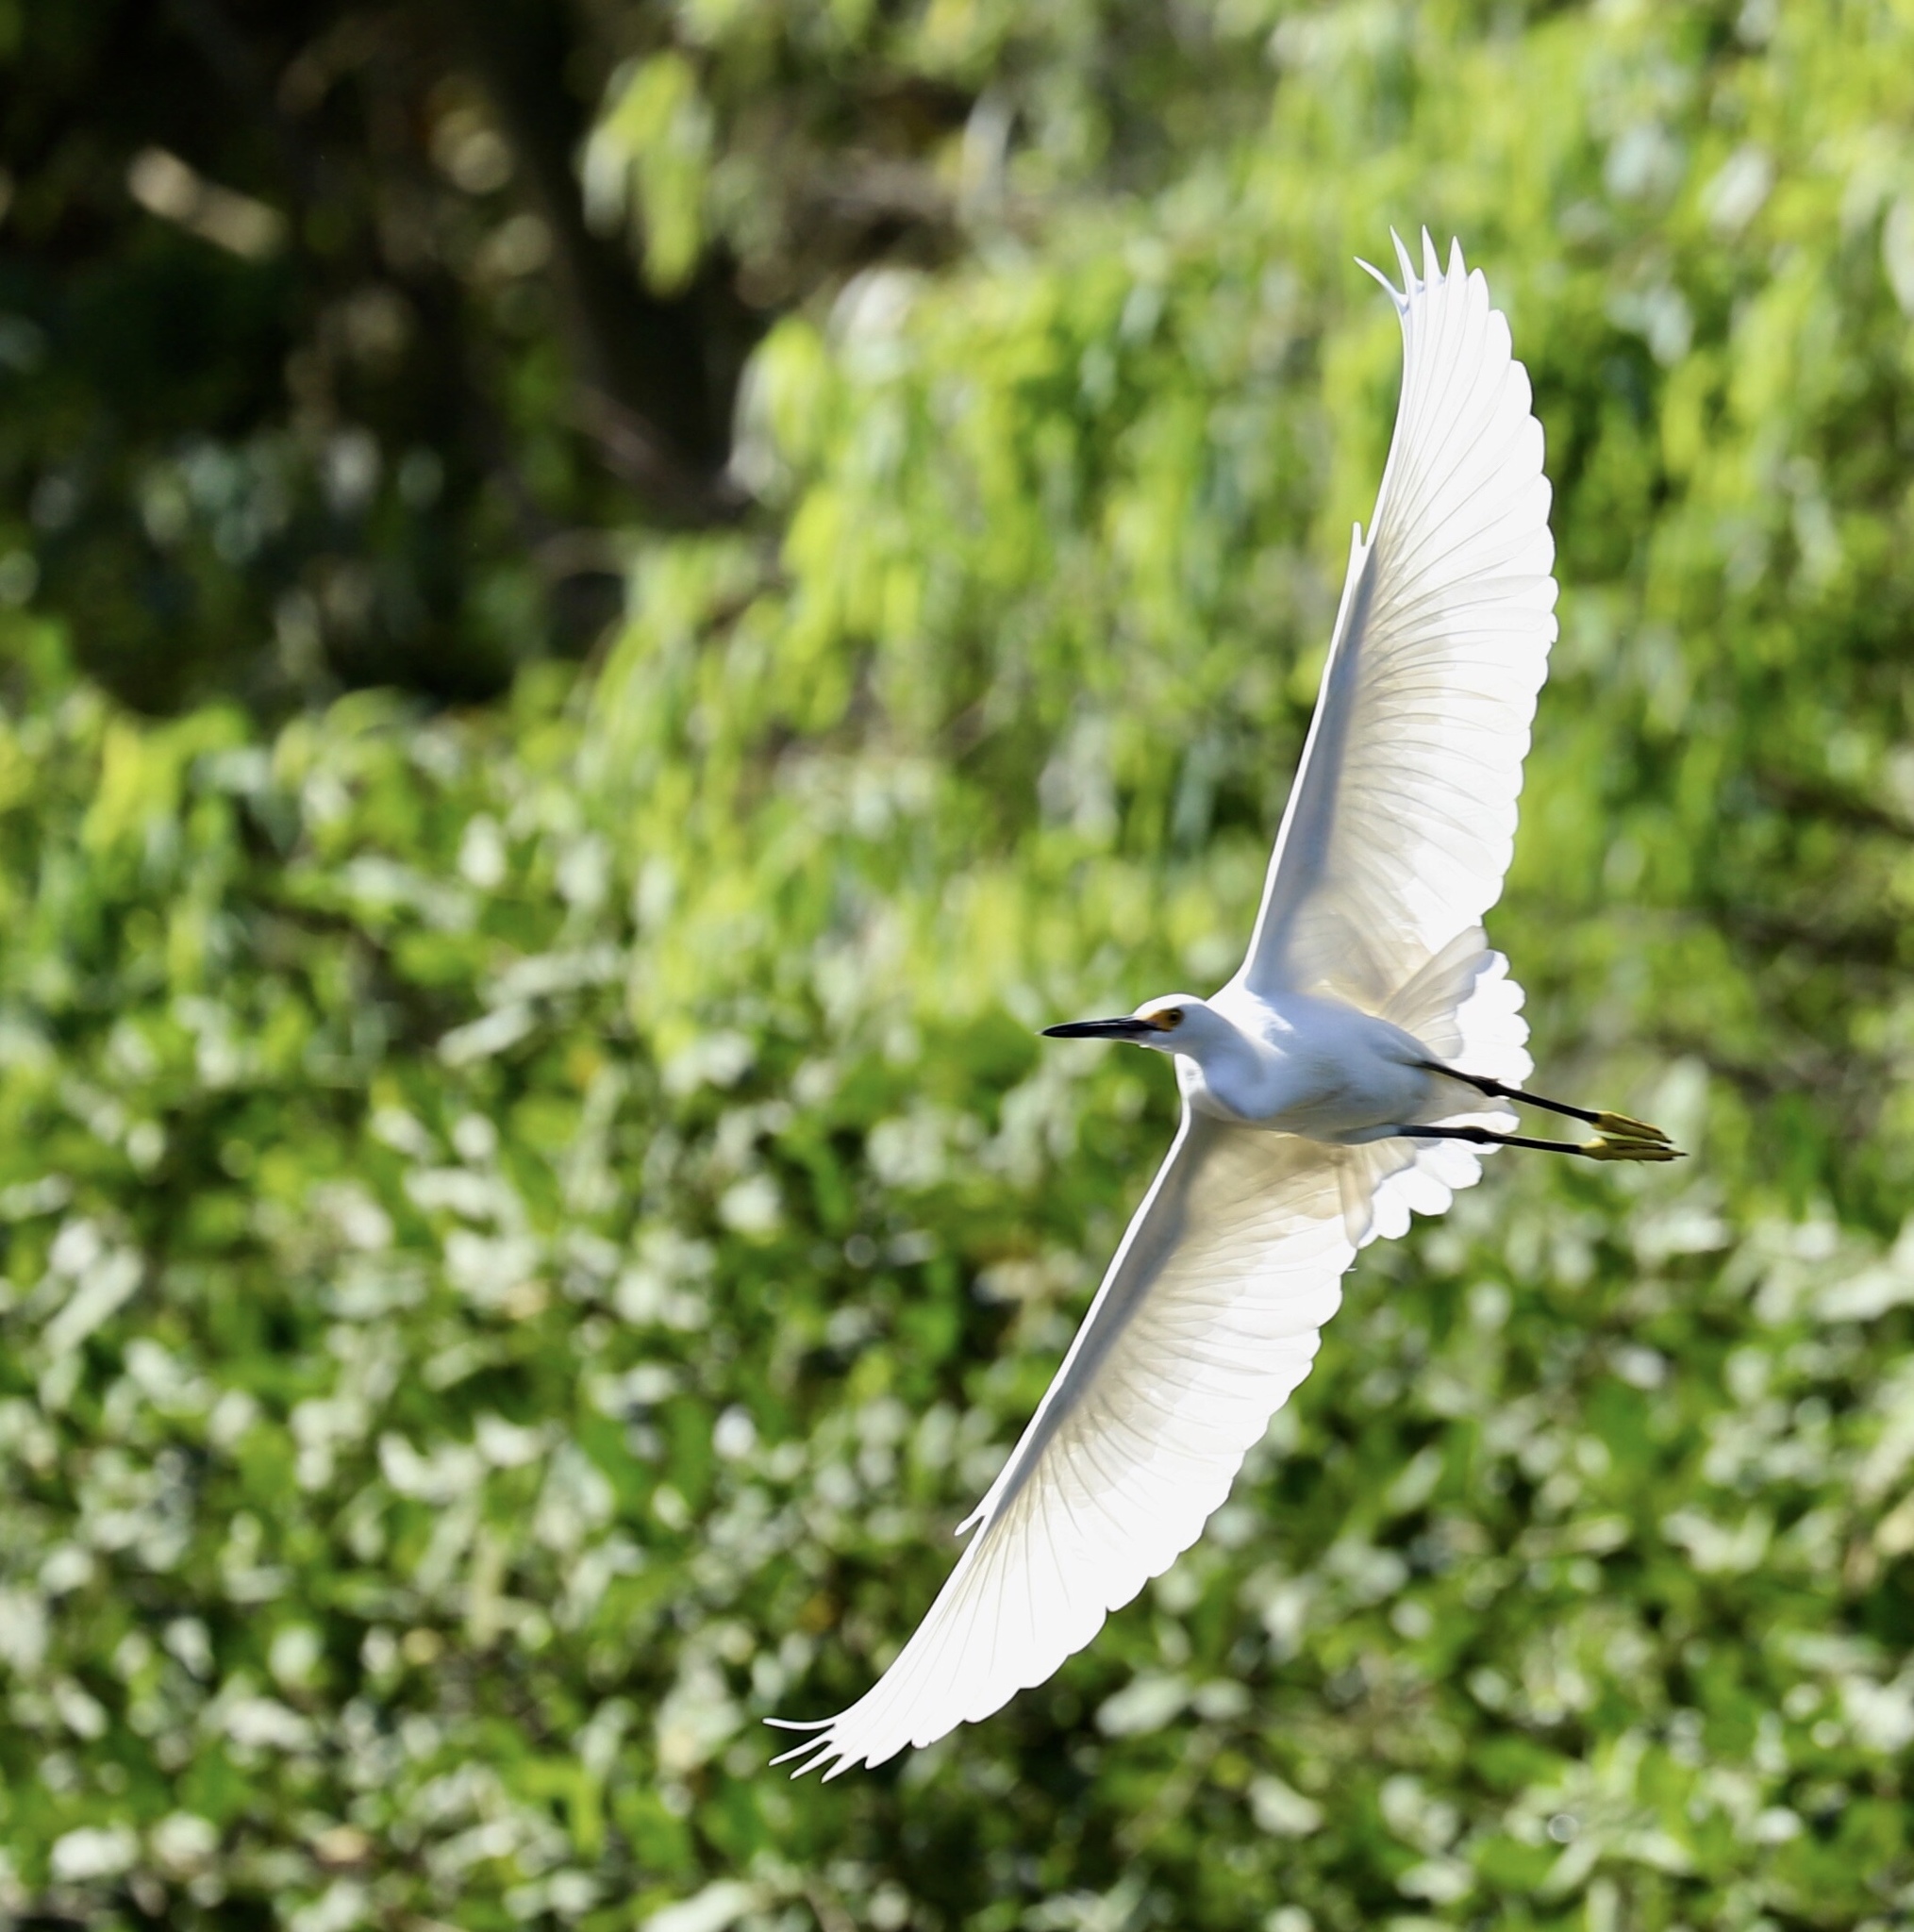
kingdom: Animalia
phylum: Chordata
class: Aves
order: Pelecaniformes
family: Ardeidae
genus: Egretta
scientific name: Egretta thula
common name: Snowy egret
